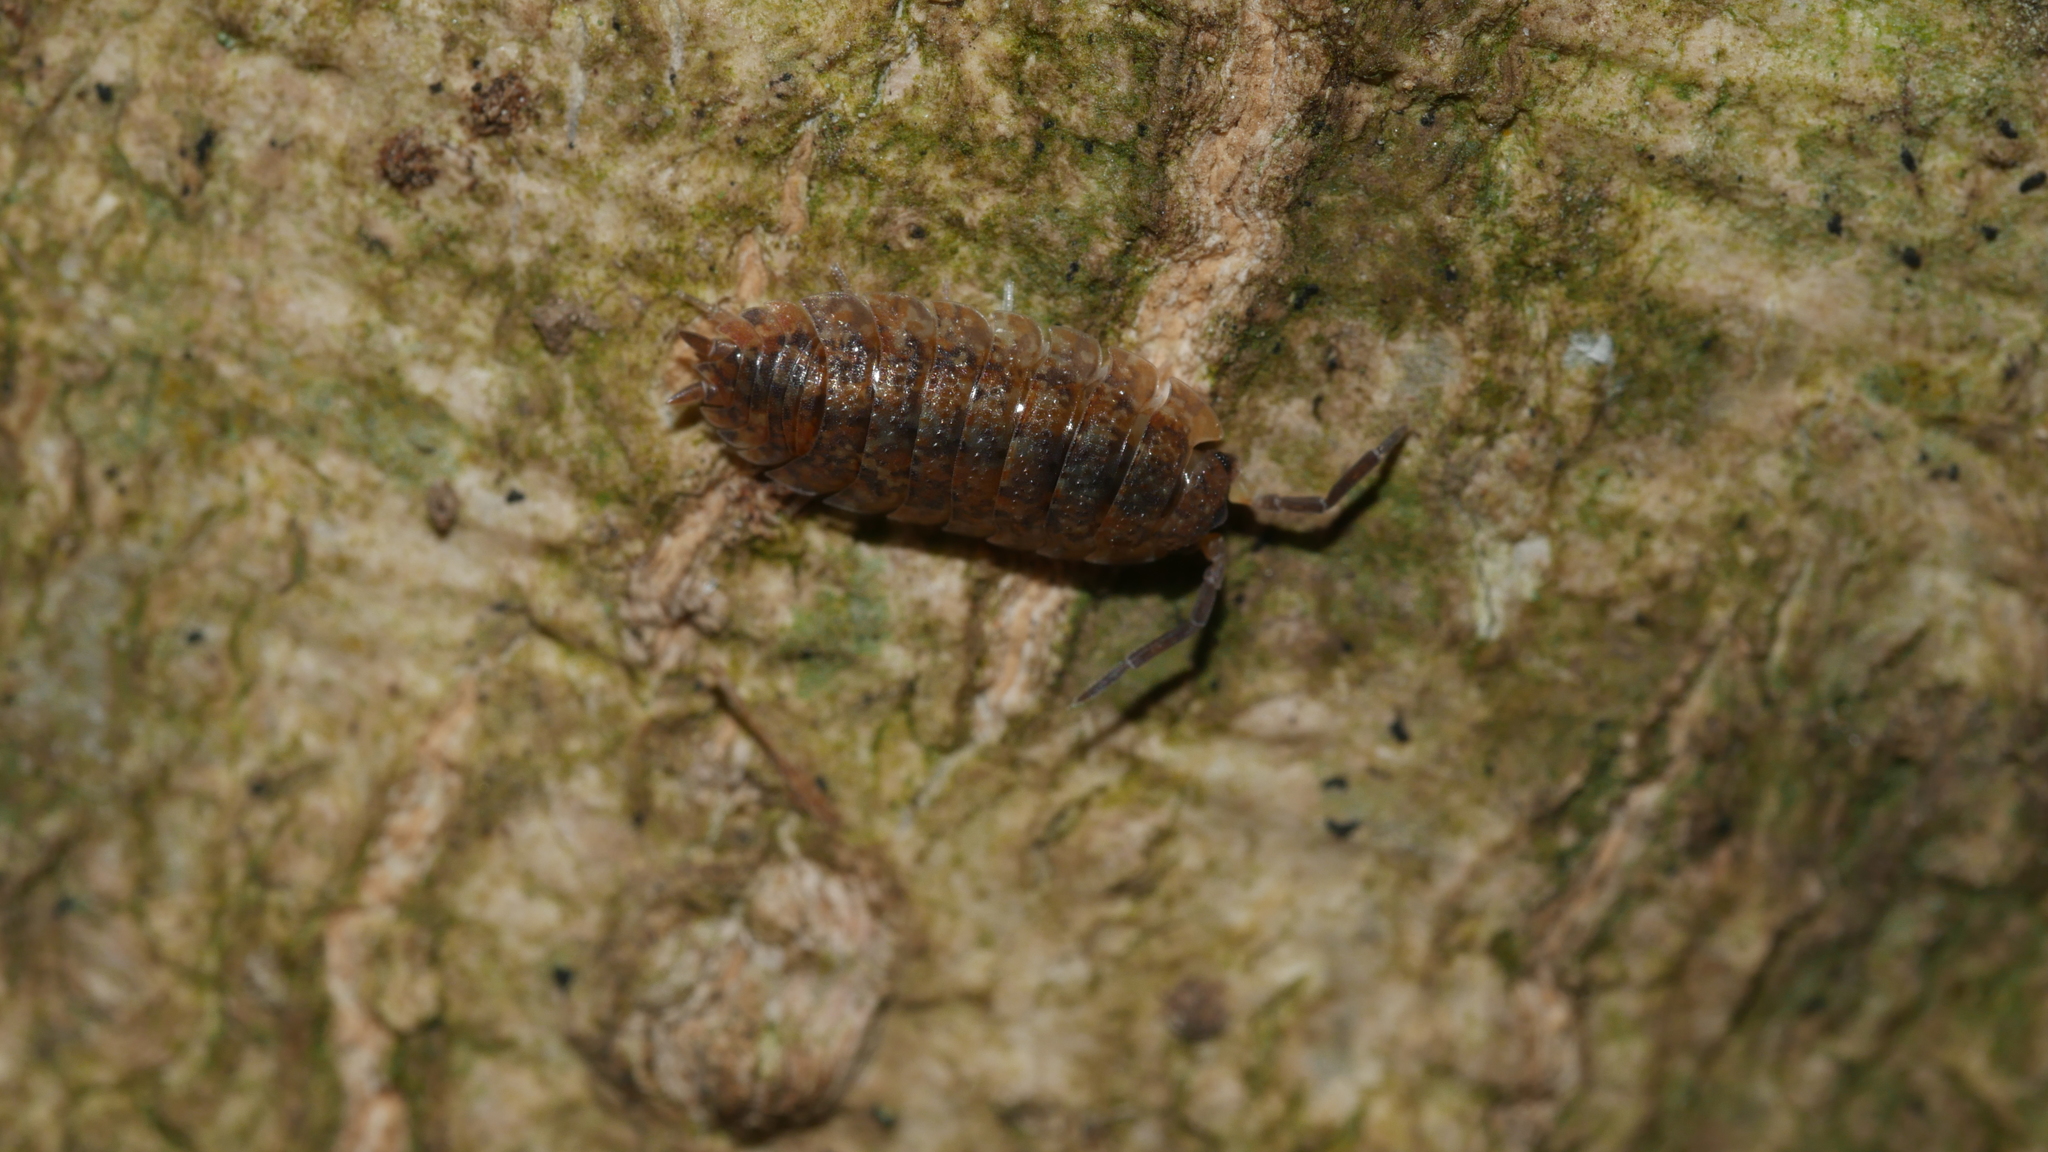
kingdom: Animalia
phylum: Arthropoda
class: Malacostraca
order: Isopoda
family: Porcellionidae
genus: Porcellio
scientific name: Porcellio scaber
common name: Common rough woodlouse
